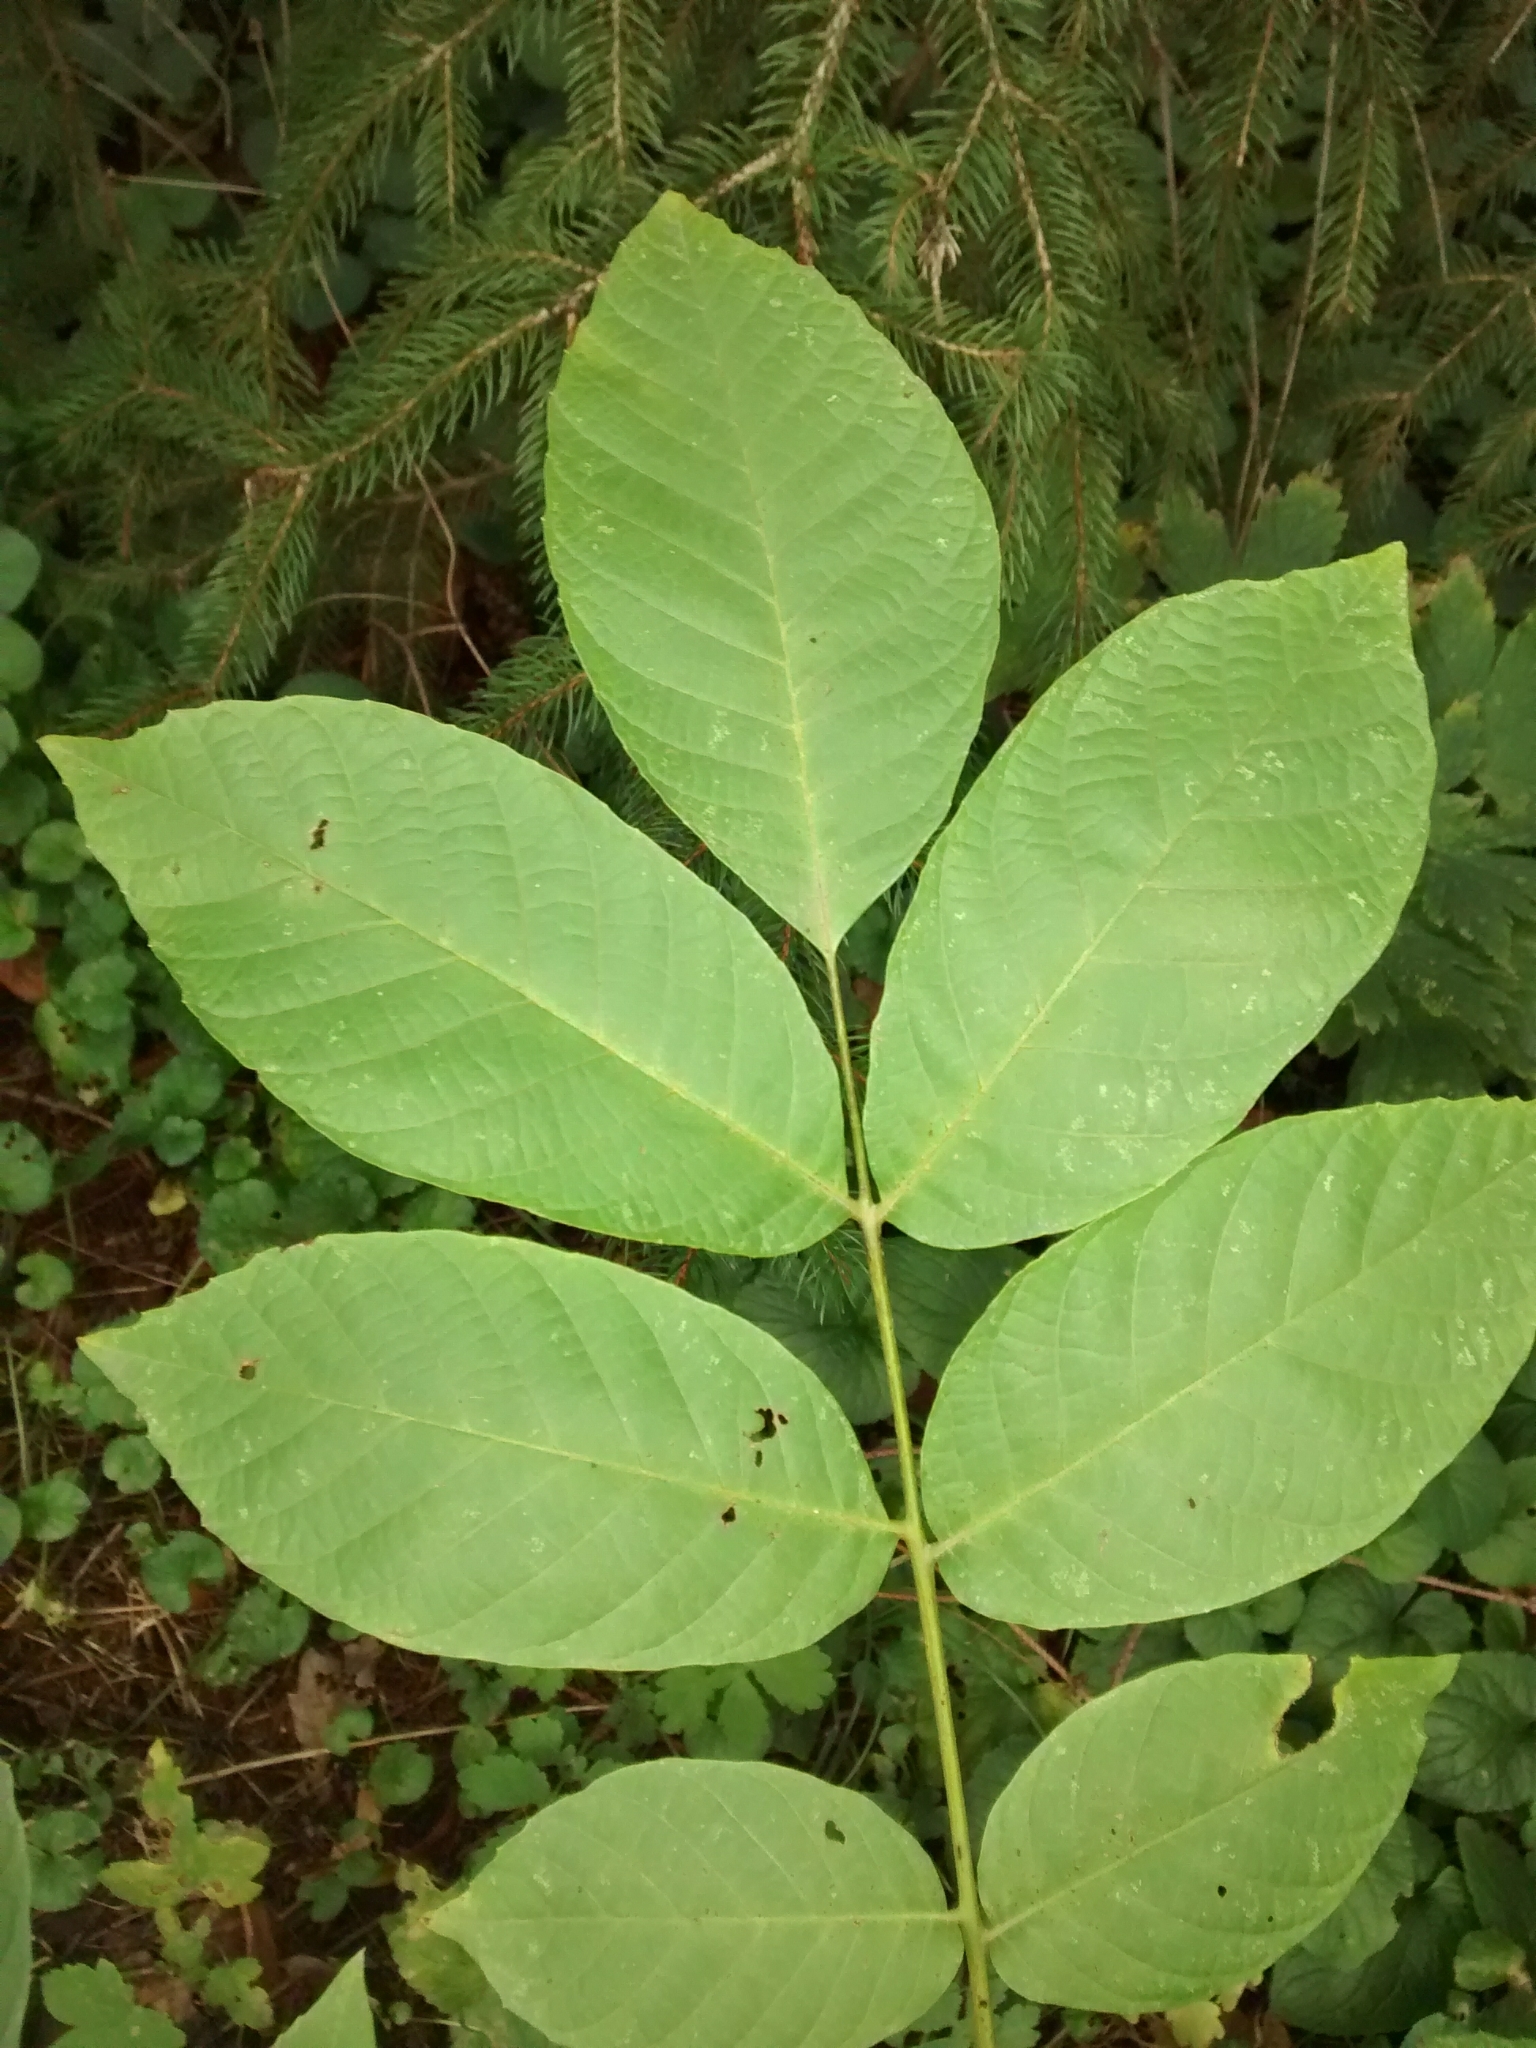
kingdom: Plantae
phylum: Tracheophyta
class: Magnoliopsida
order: Fagales
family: Juglandaceae
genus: Juglans
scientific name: Juglans regia
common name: Walnut
